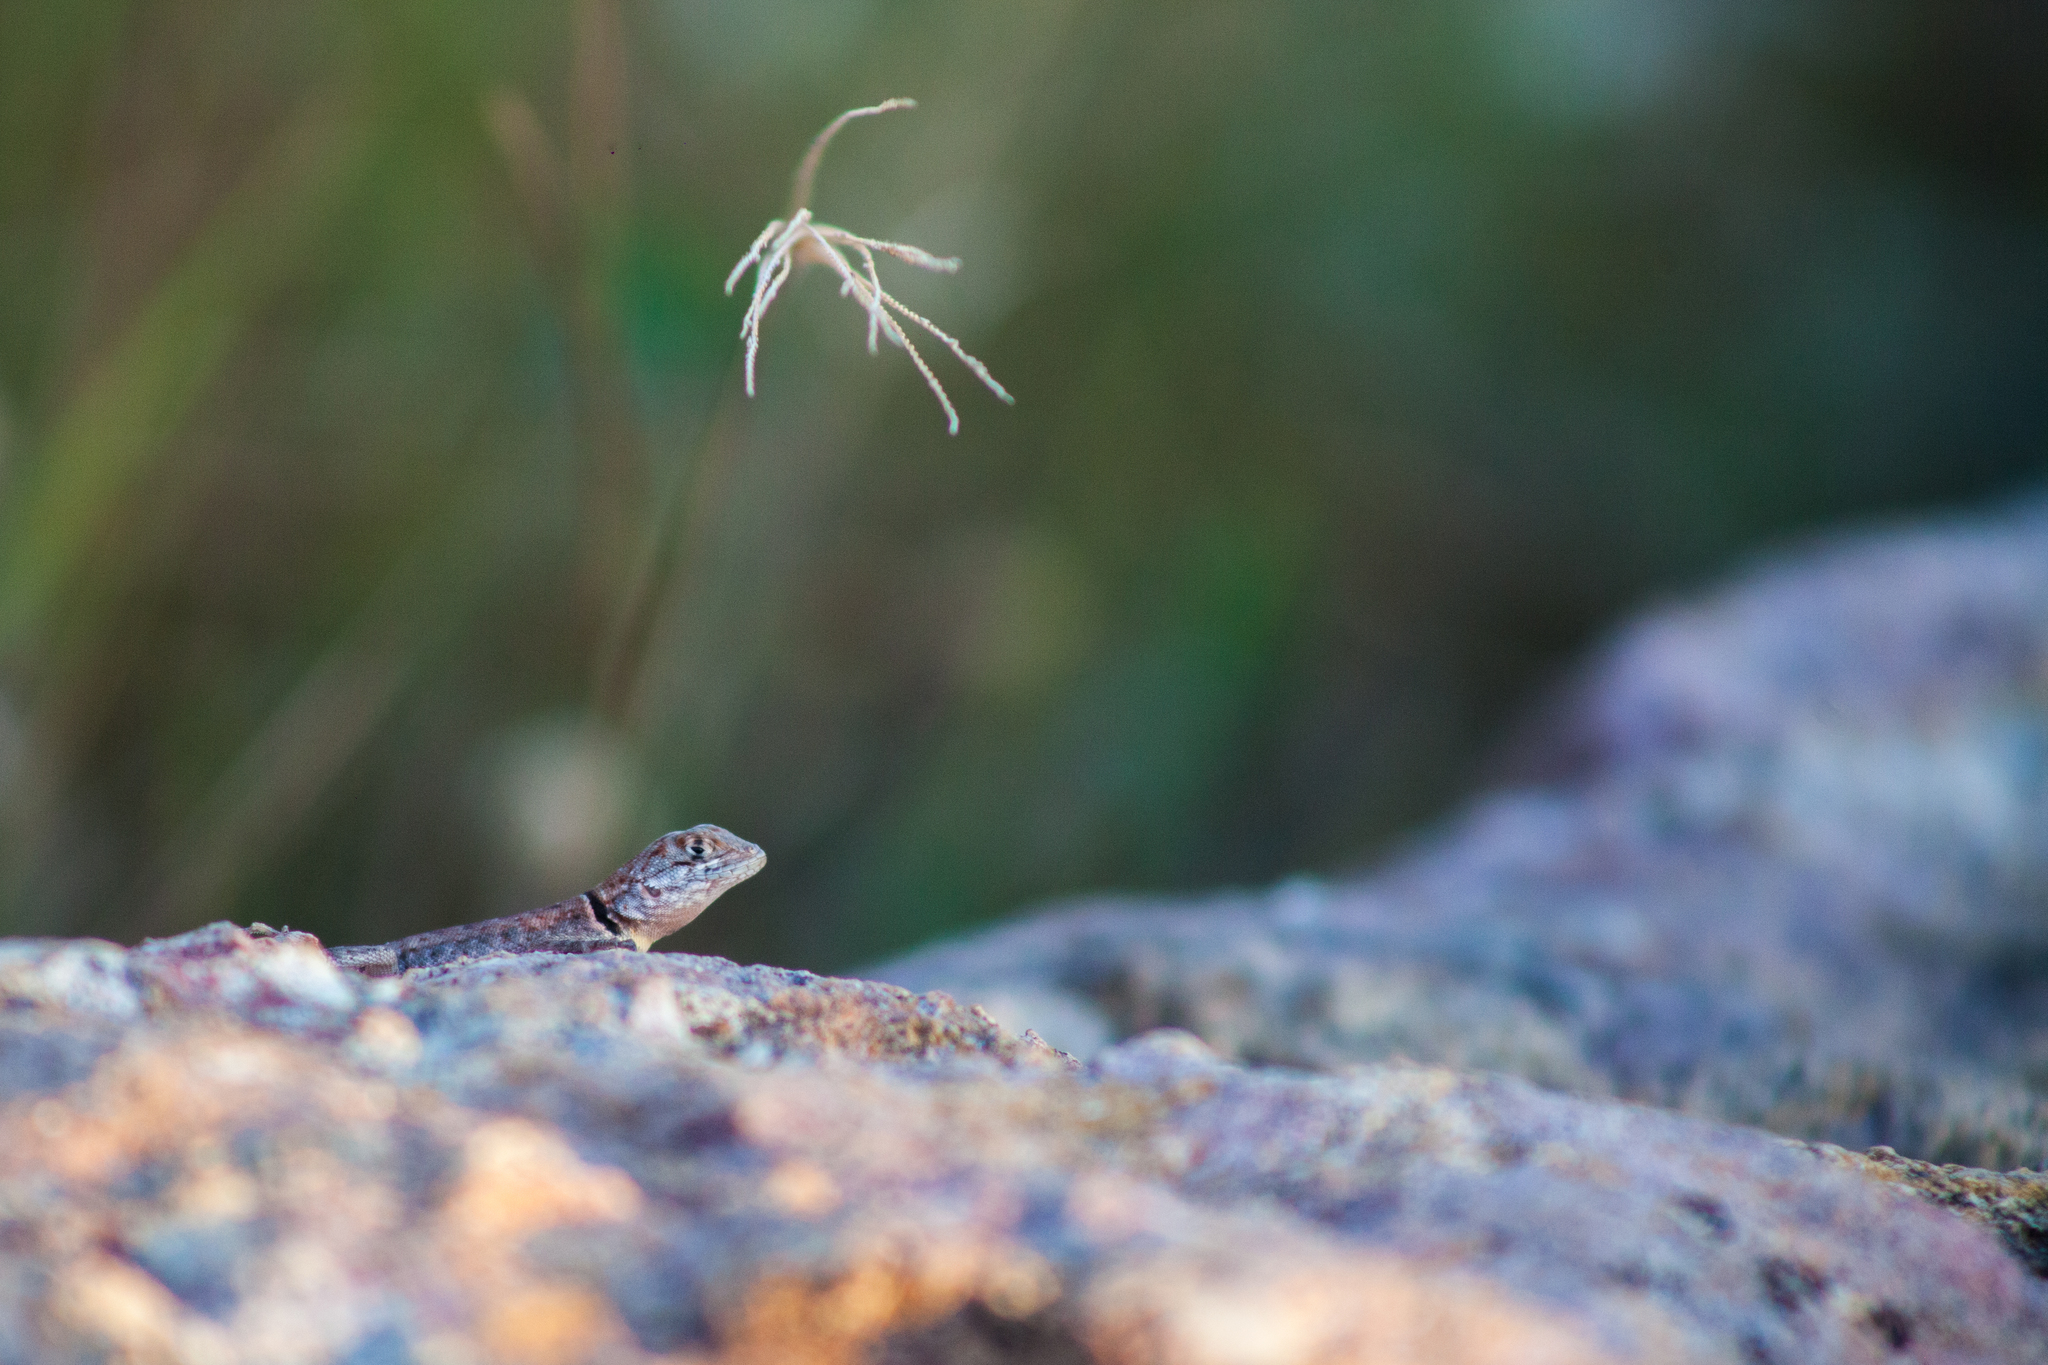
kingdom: Animalia
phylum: Chordata
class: Squamata
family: Tropiduridae
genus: Tropidurus
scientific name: Tropidurus oreadicus
